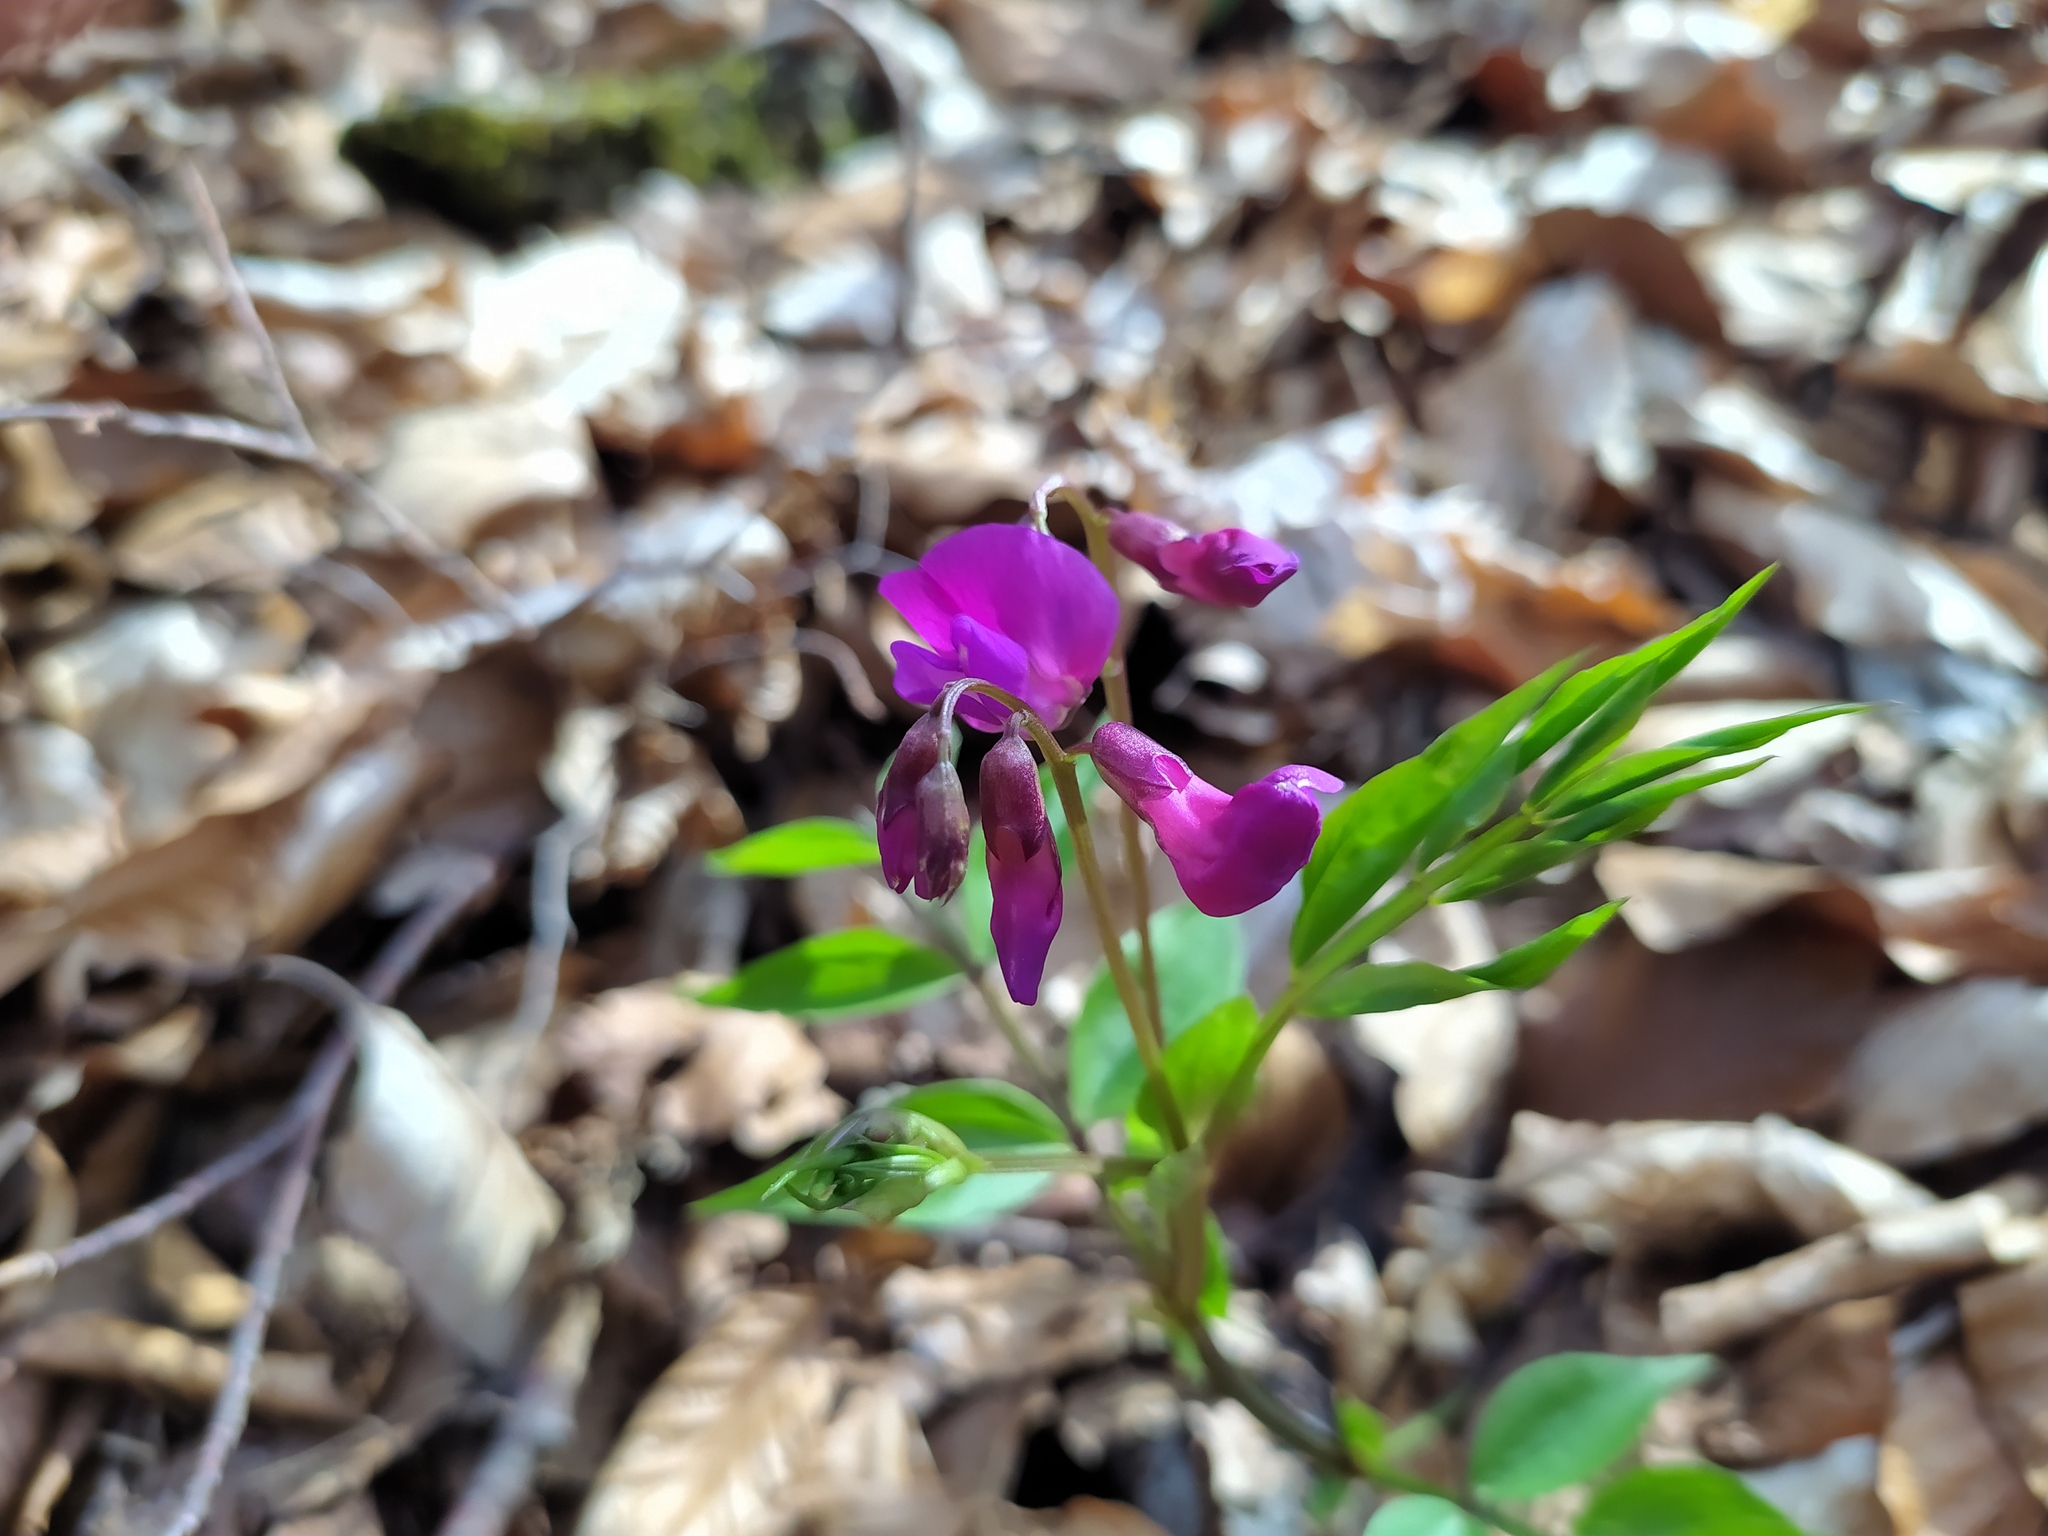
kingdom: Plantae
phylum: Tracheophyta
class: Magnoliopsida
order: Fabales
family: Fabaceae
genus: Lathyrus
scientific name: Lathyrus vernus
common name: Spring pea
